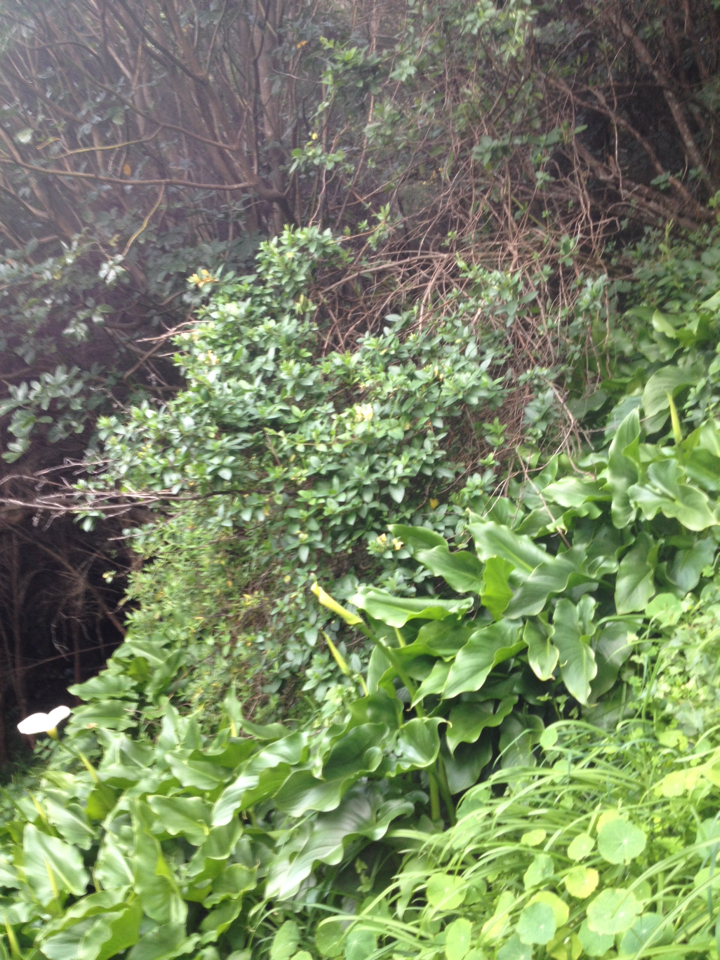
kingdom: Plantae
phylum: Tracheophyta
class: Magnoliopsida
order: Dipsacales
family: Caprifoliaceae
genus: Lonicera
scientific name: Lonicera japonica
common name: Japanese honeysuckle
